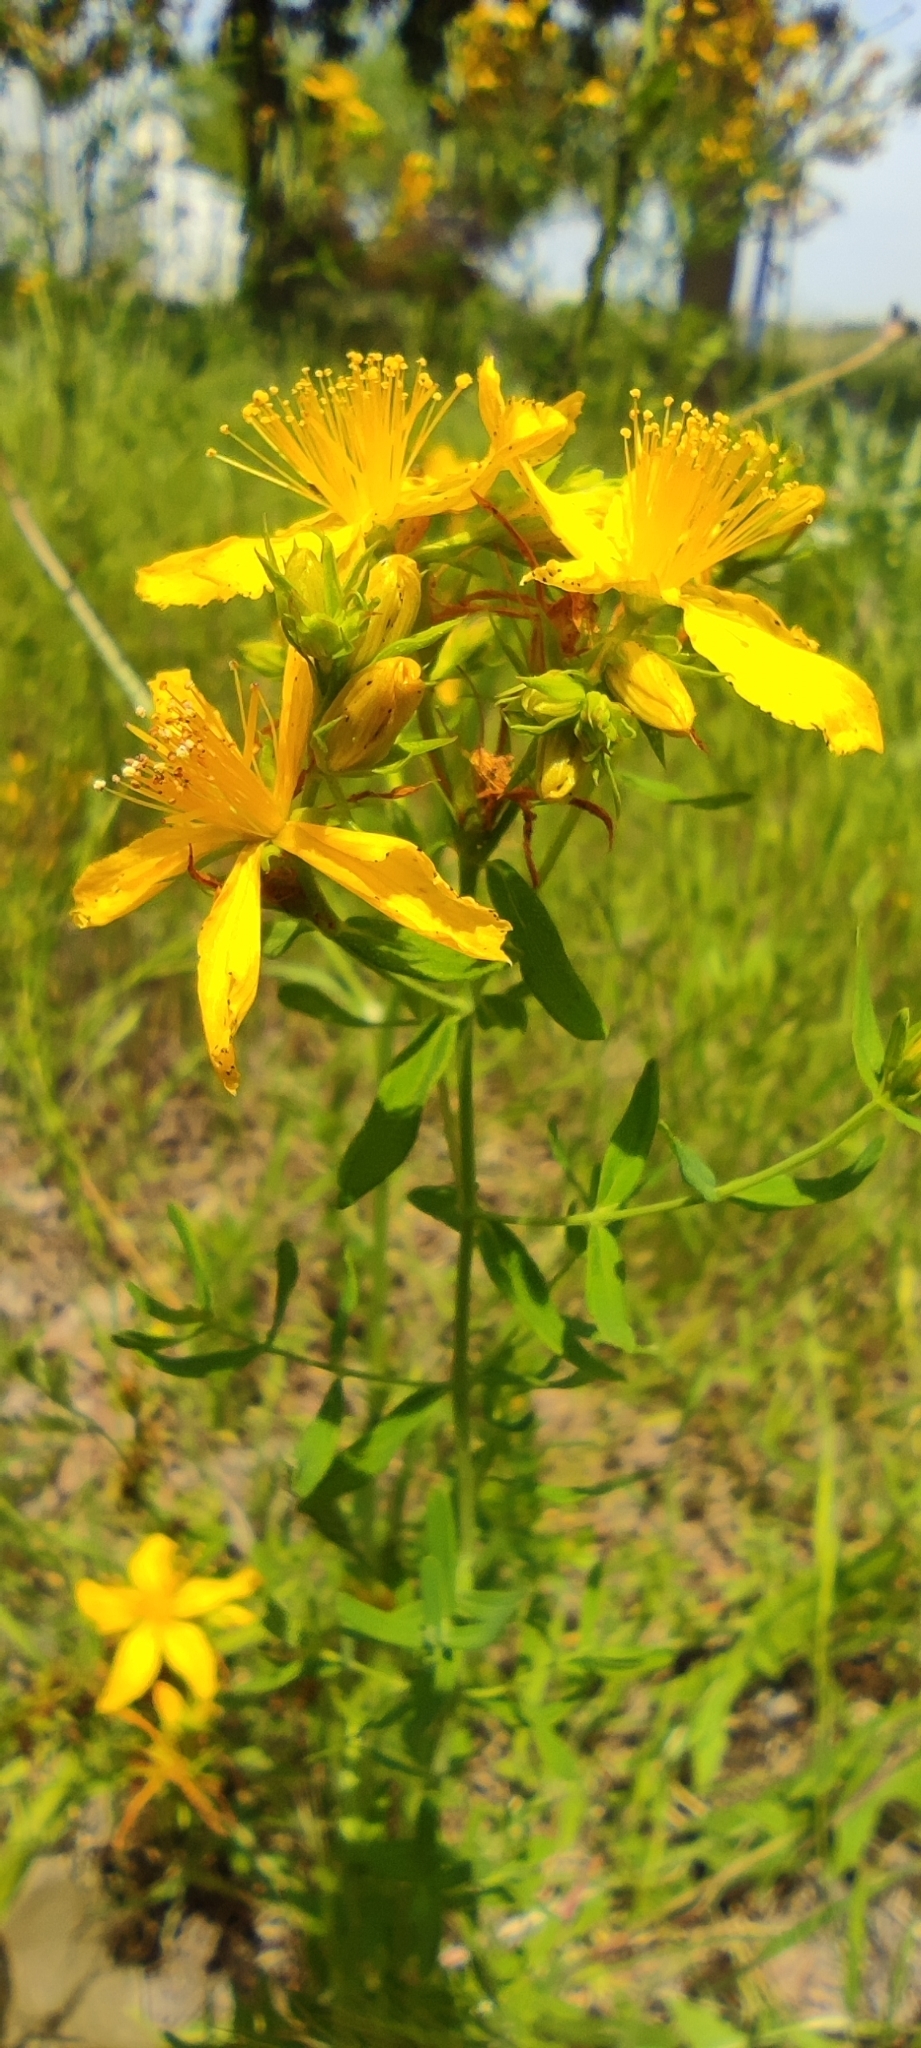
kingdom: Plantae
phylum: Tracheophyta
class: Magnoliopsida
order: Malpighiales
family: Hypericaceae
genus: Hypericum
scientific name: Hypericum perforatum
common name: Common st. johnswort
